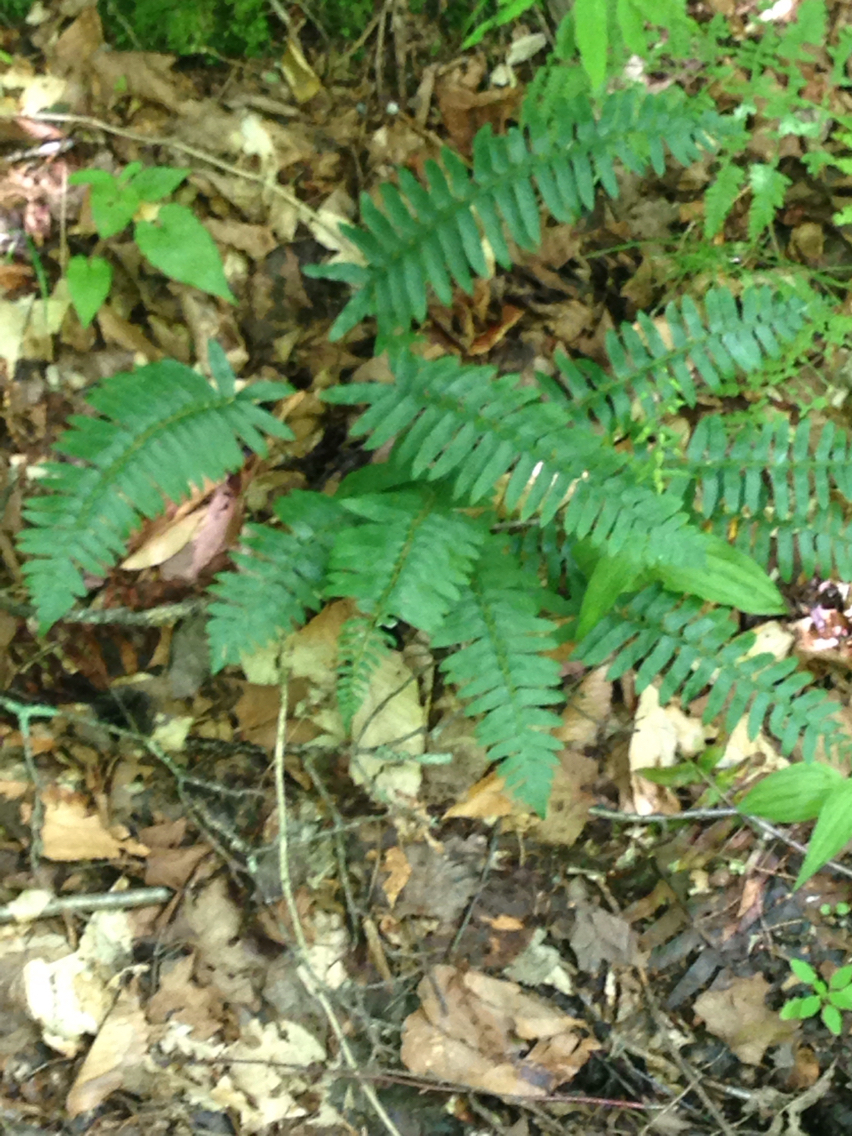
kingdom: Plantae
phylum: Tracheophyta
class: Polypodiopsida
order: Polypodiales
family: Dryopteridaceae
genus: Polystichum
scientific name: Polystichum acrostichoides
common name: Christmas fern
